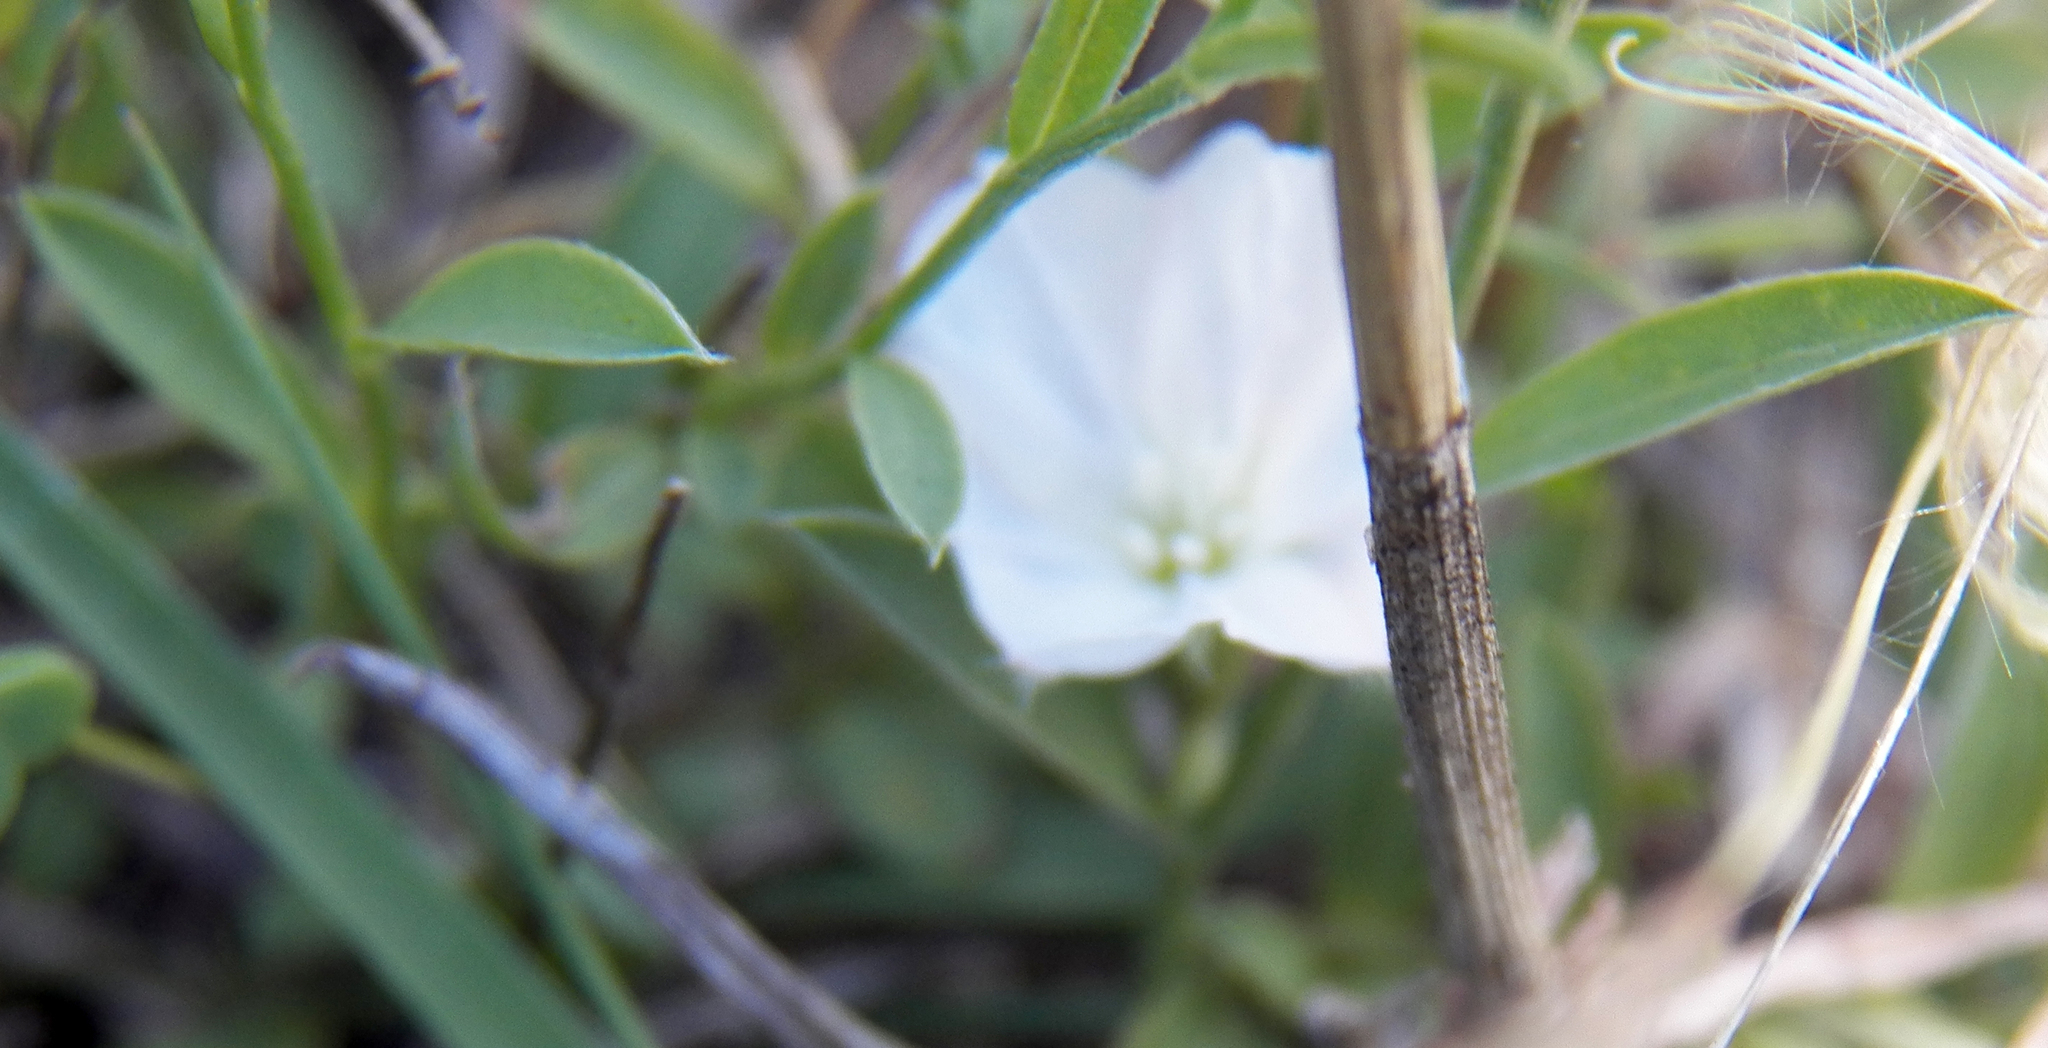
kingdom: Plantae
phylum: Tracheophyta
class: Magnoliopsida
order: Solanales
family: Convolvulaceae
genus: Evolvulus
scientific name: Evolvulus sericeus
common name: Blue dots
